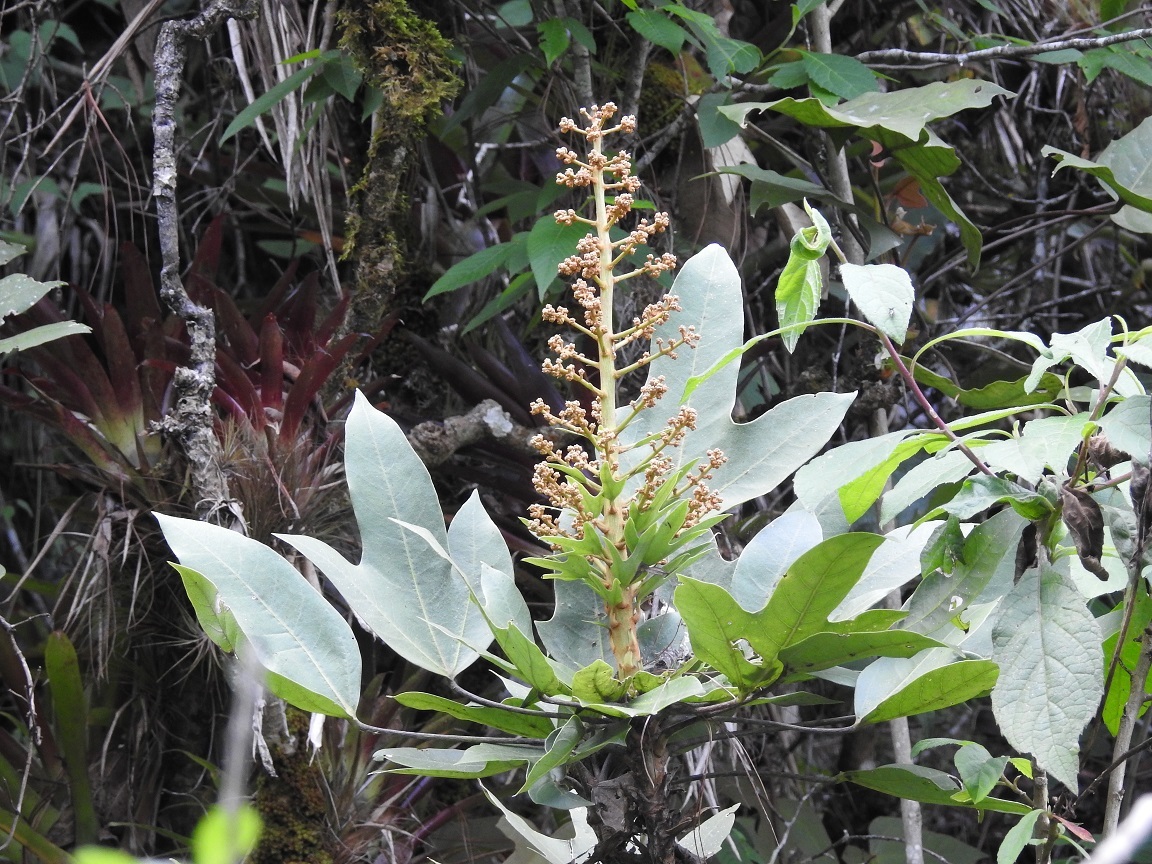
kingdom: Plantae
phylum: Tracheophyta
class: Magnoliopsida
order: Apiales
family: Araliaceae
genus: Oreopanax
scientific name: Oreopanax peltatus
